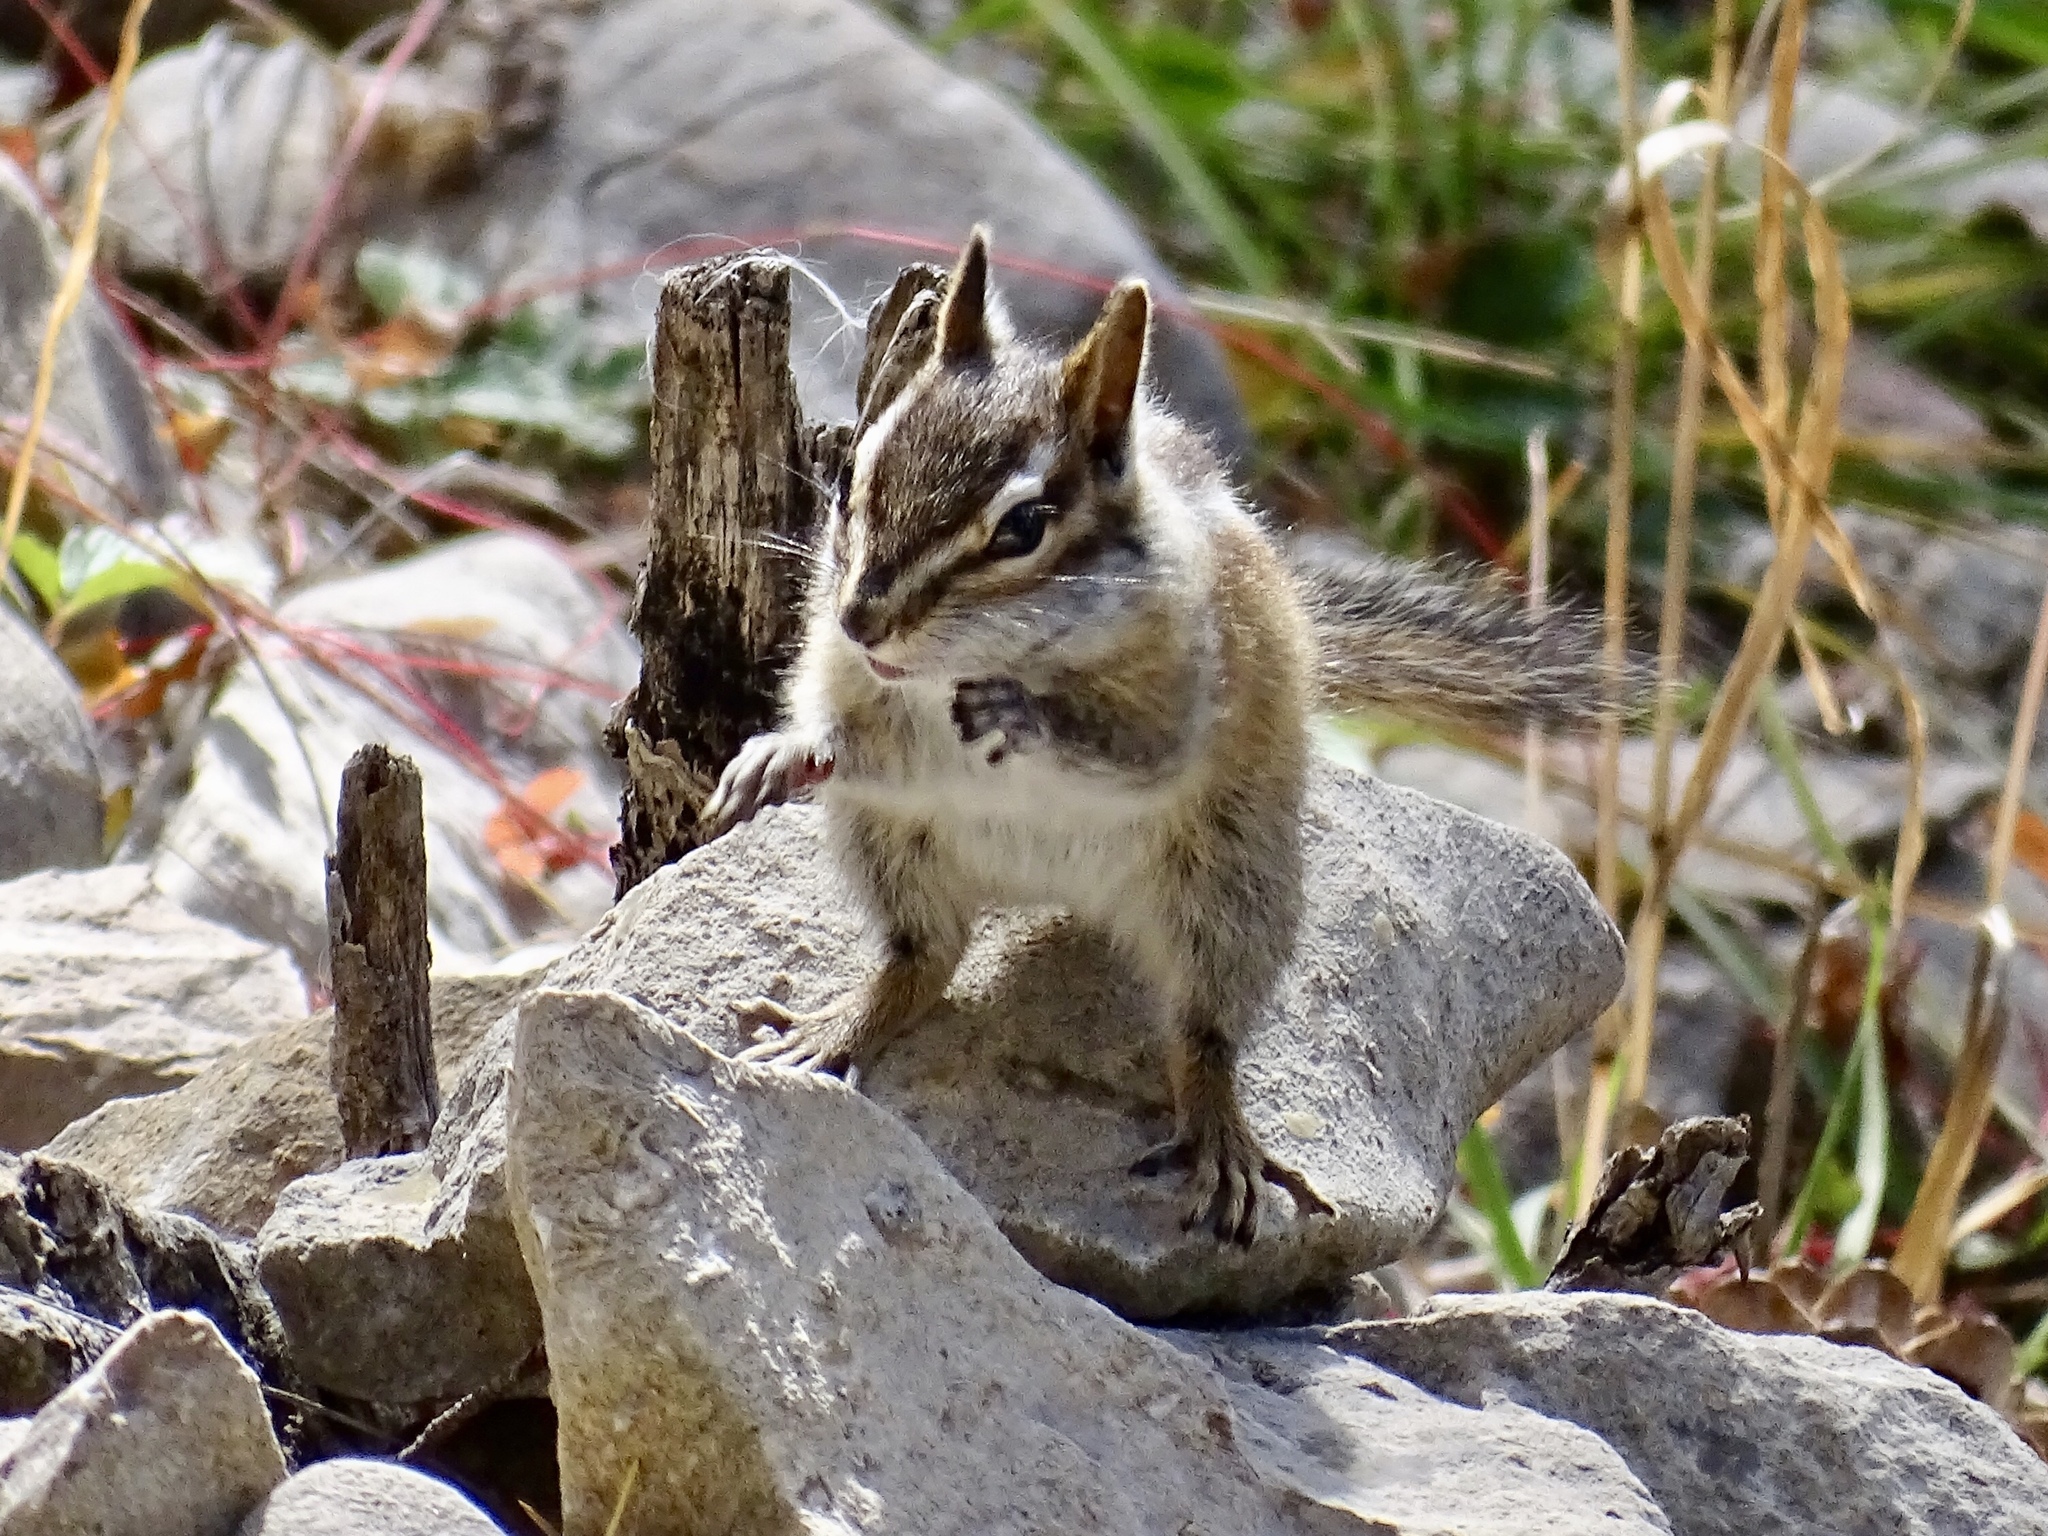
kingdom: Animalia
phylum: Chordata
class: Mammalia
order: Rodentia
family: Sciuridae
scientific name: Sciuridae
